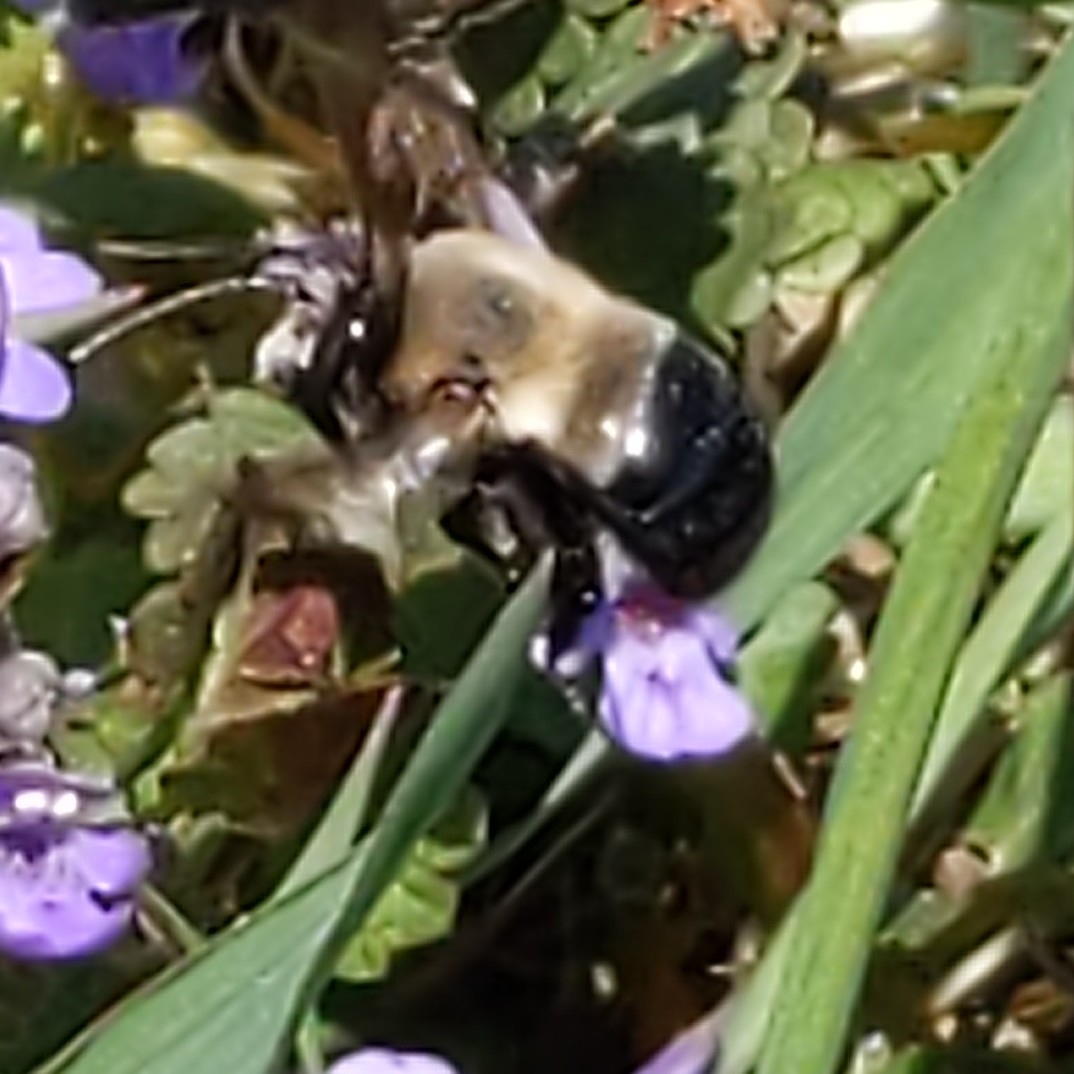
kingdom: Animalia
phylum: Arthropoda
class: Insecta
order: Hymenoptera
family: Apidae
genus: Habropoda
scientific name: Habropoda laboriosa
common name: Southeastern blueberry bee
